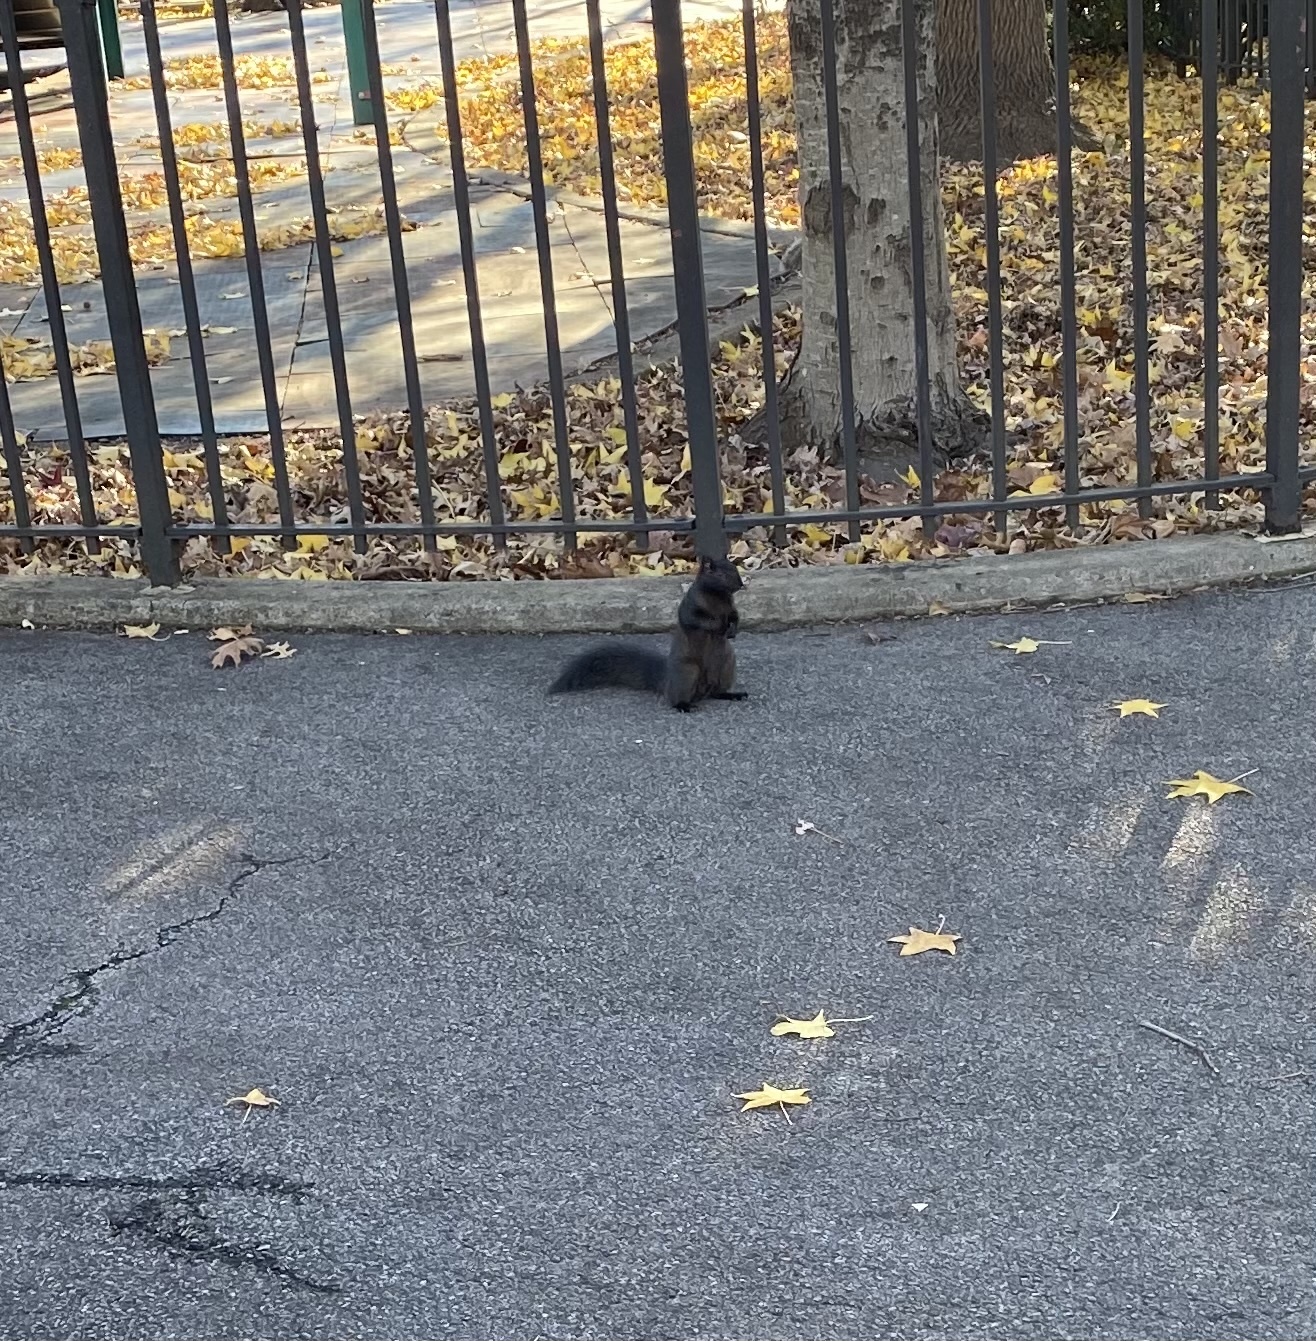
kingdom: Animalia
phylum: Chordata
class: Mammalia
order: Rodentia
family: Sciuridae
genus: Sciurus
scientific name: Sciurus carolinensis
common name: Eastern gray squirrel
